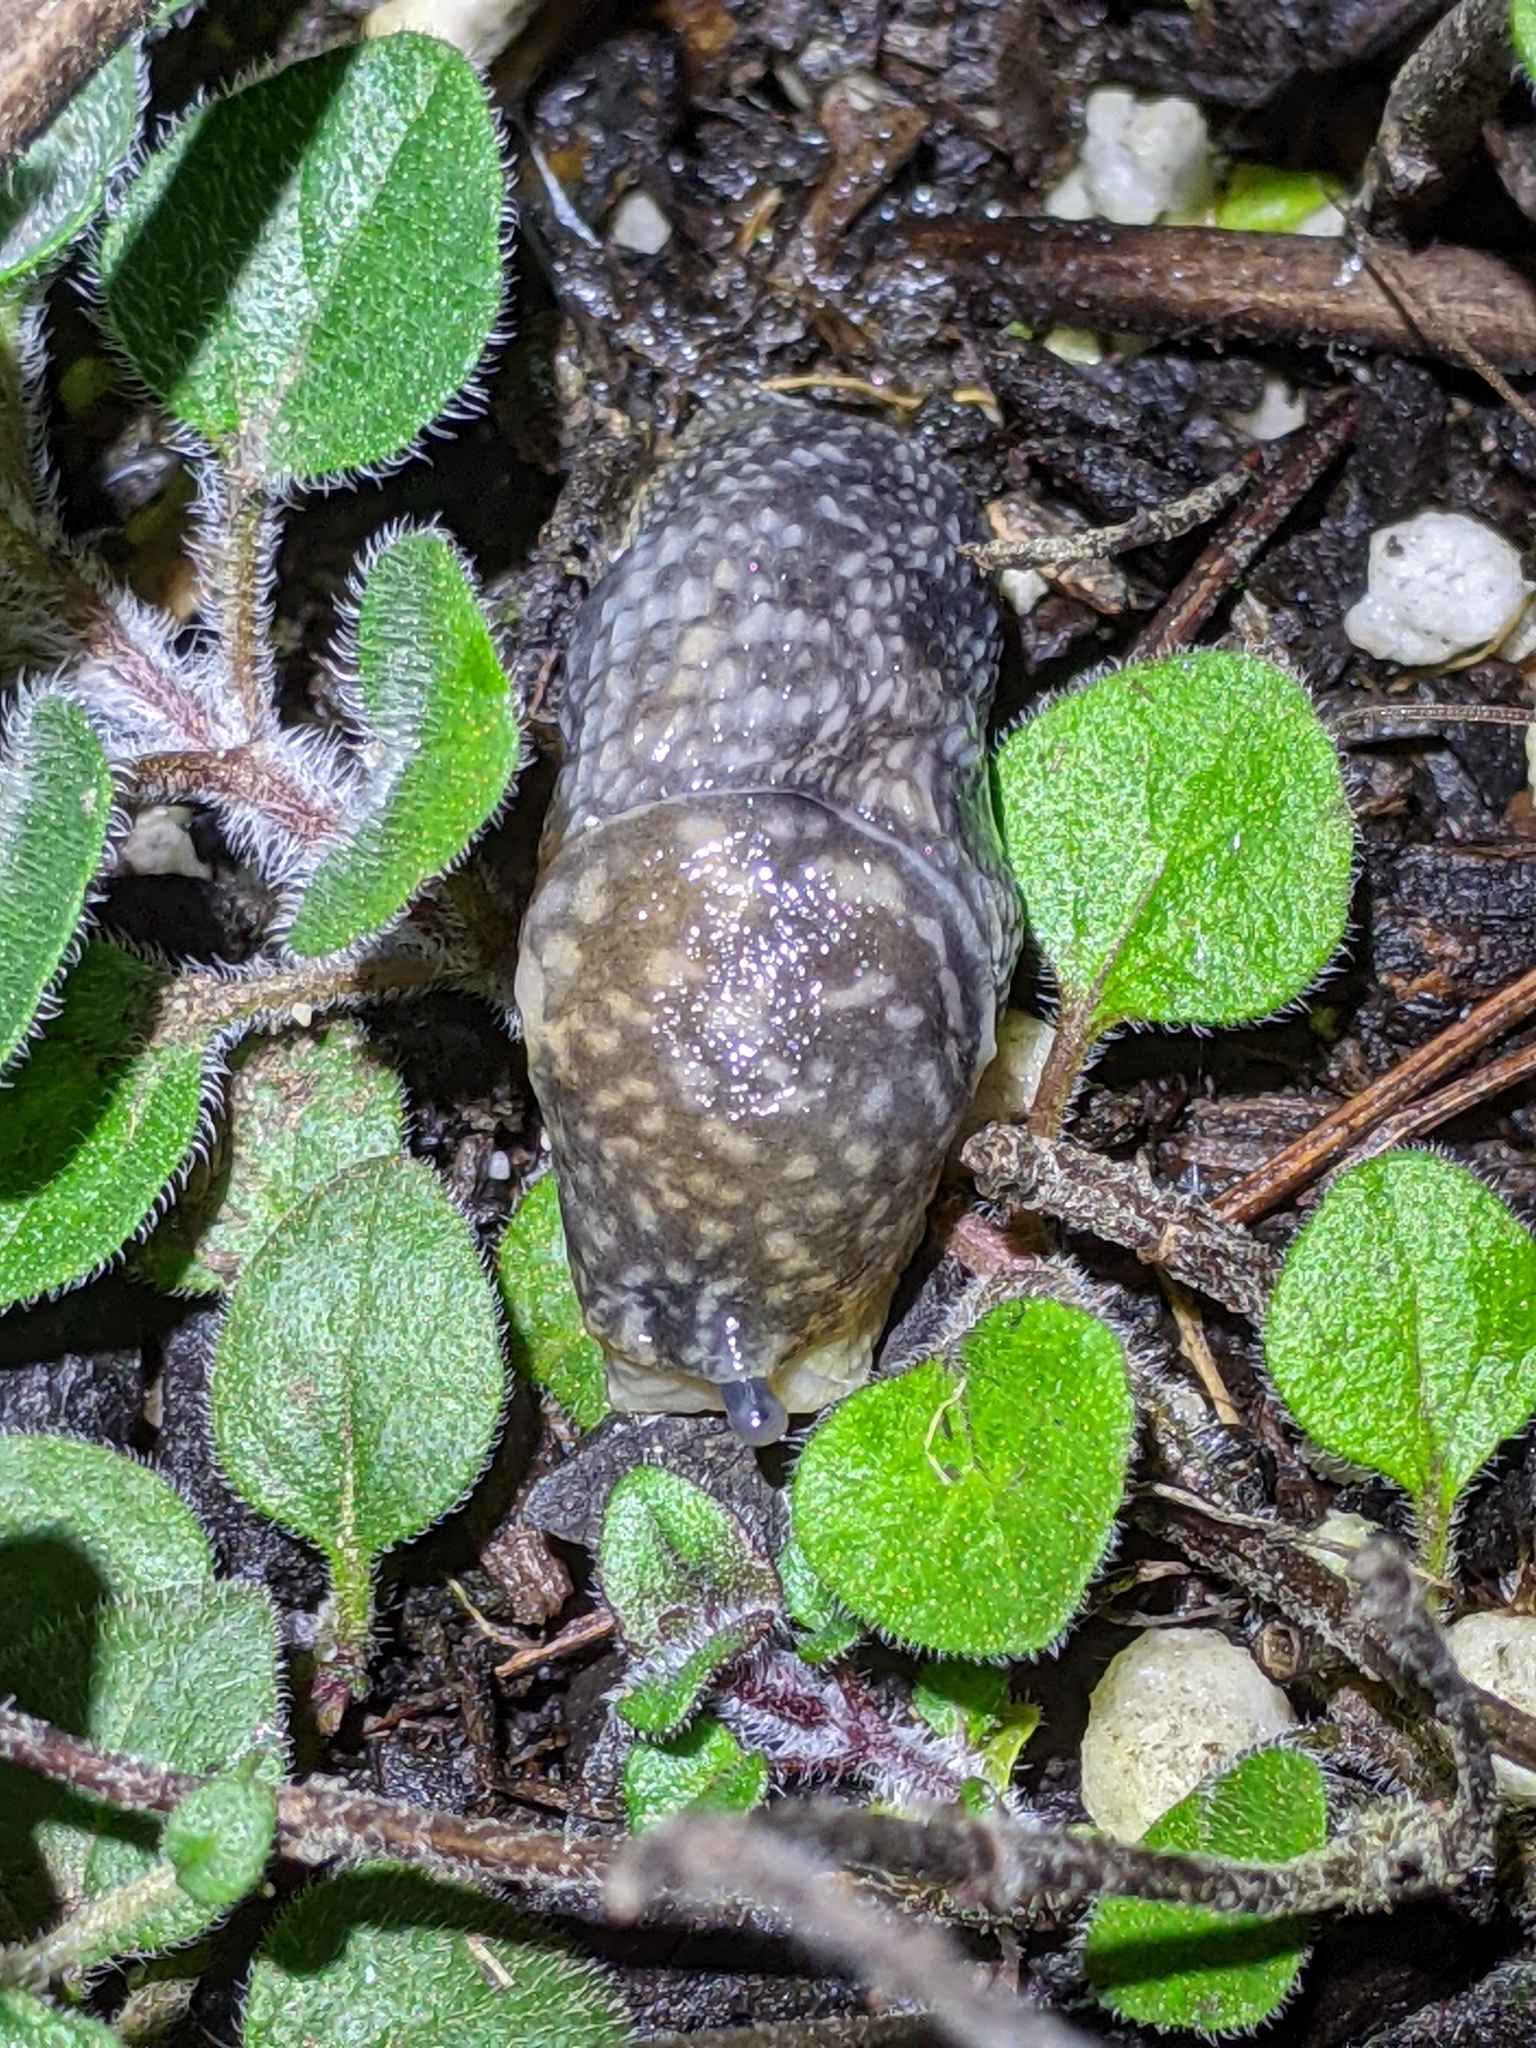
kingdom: Animalia
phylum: Mollusca
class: Gastropoda
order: Stylommatophora
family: Limacidae
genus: Limacus
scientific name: Limacus flavus
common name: Yellow gardenslug
